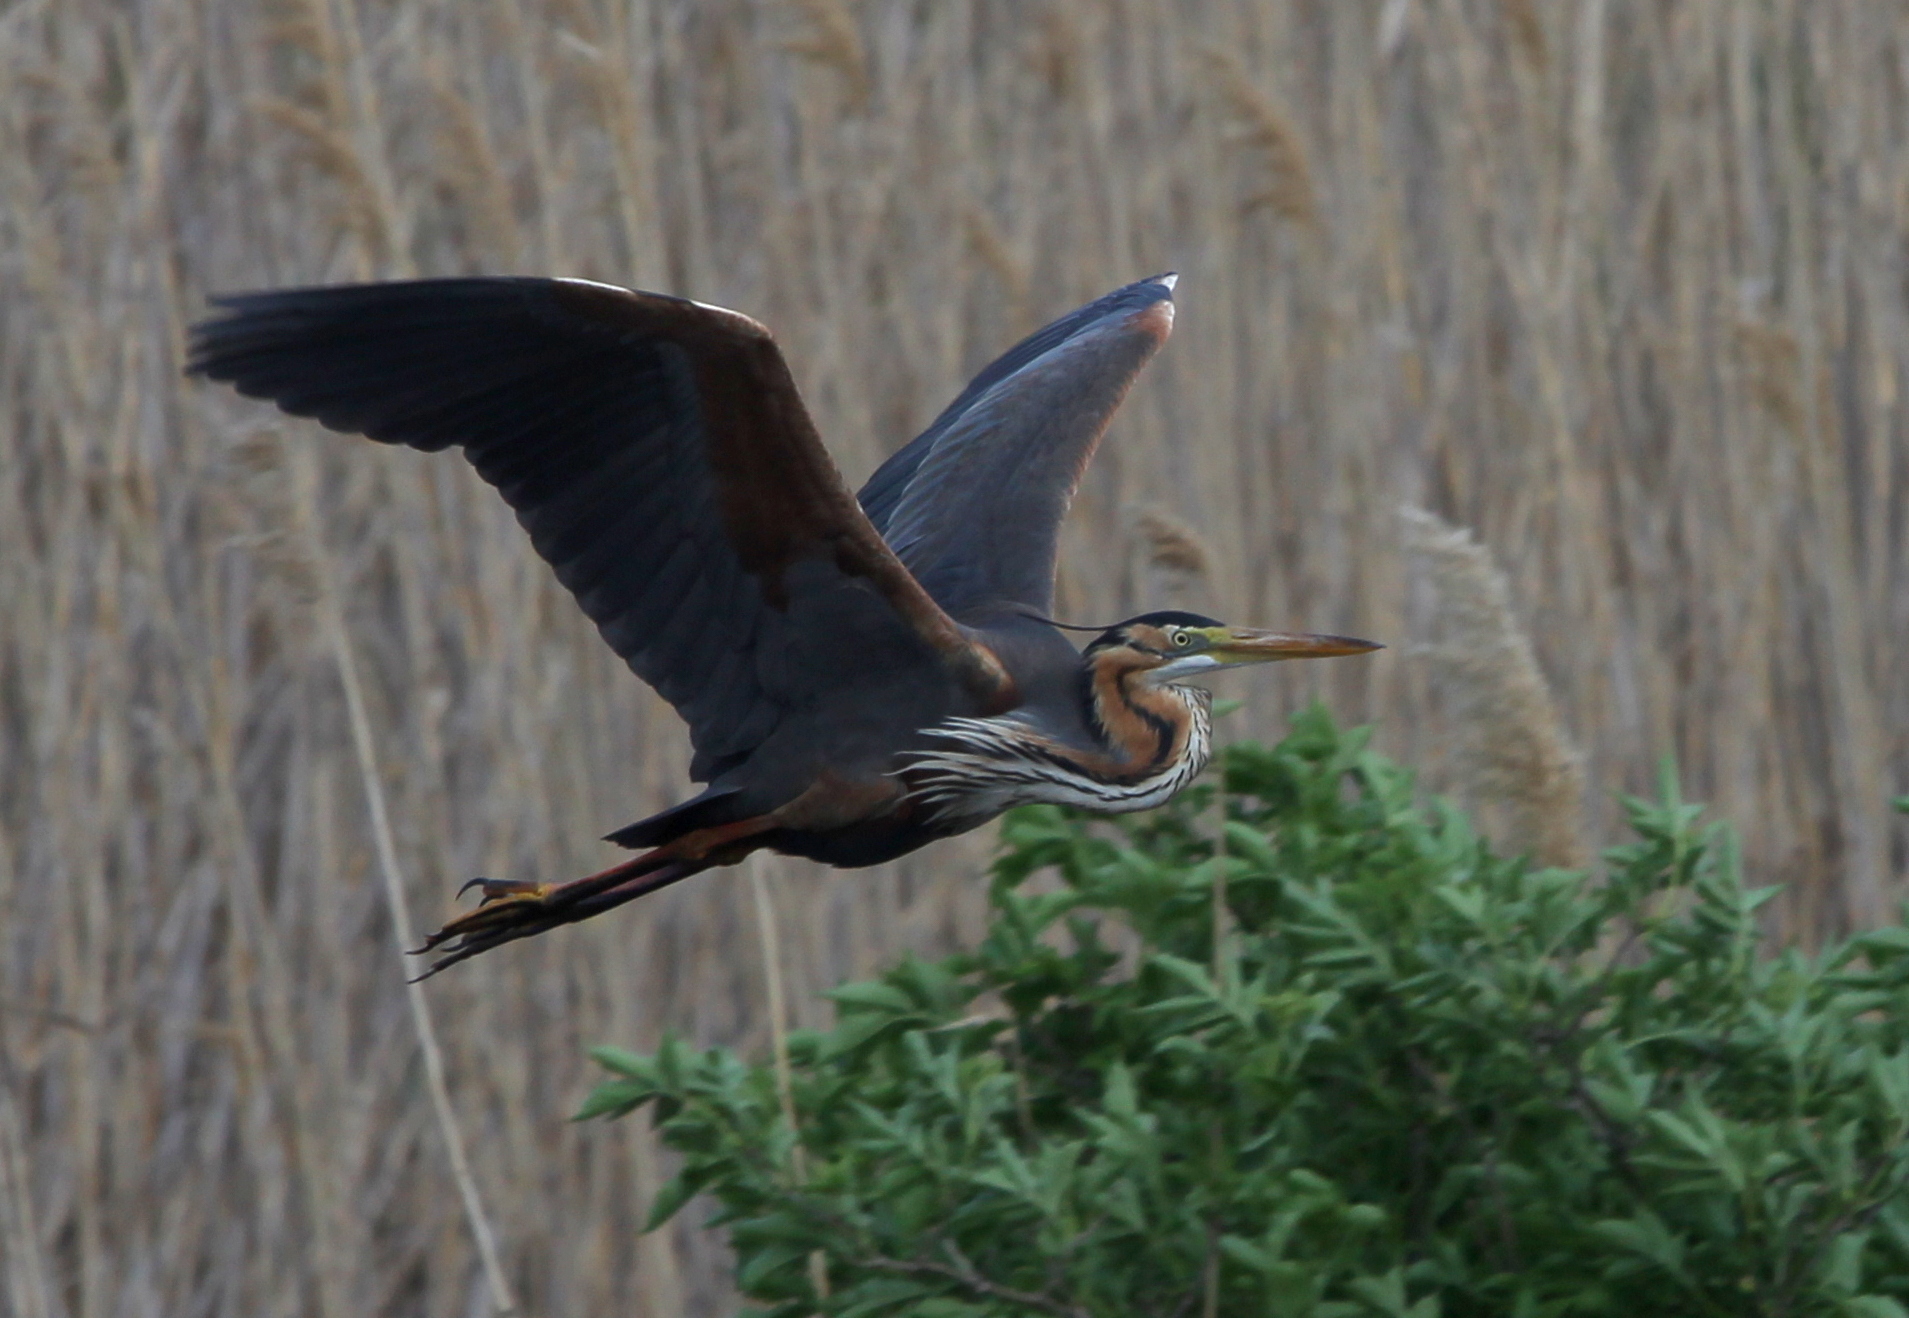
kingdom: Animalia
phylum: Chordata
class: Aves
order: Pelecaniformes
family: Ardeidae
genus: Ardea
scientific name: Ardea purpurea
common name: Purple heron
